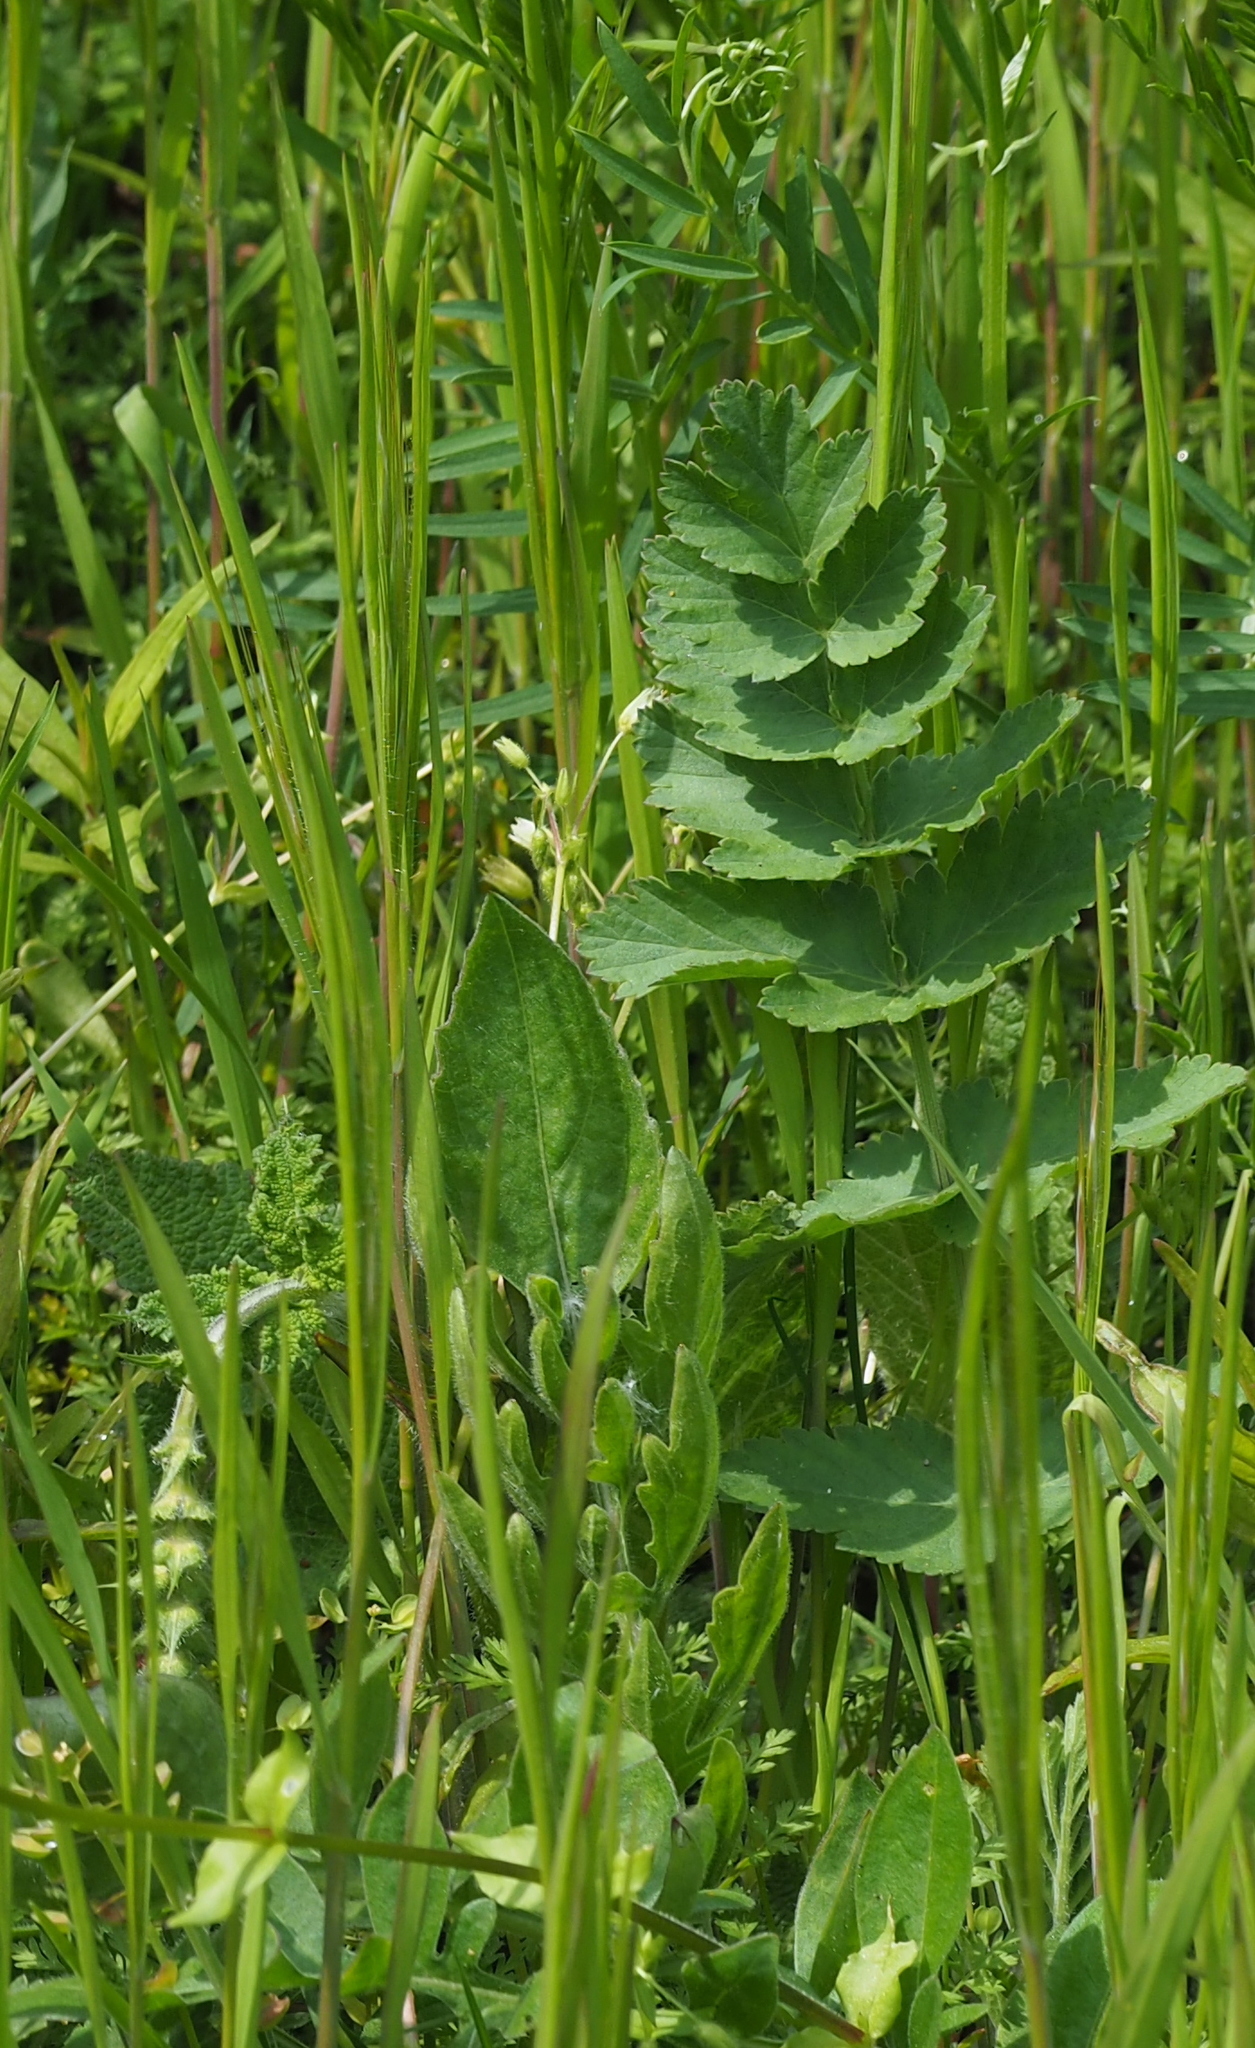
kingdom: Plantae
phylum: Tracheophyta
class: Magnoliopsida
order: Apiales
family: Apiaceae
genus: Pastinaca
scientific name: Pastinaca sativa
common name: Wild parsnip
